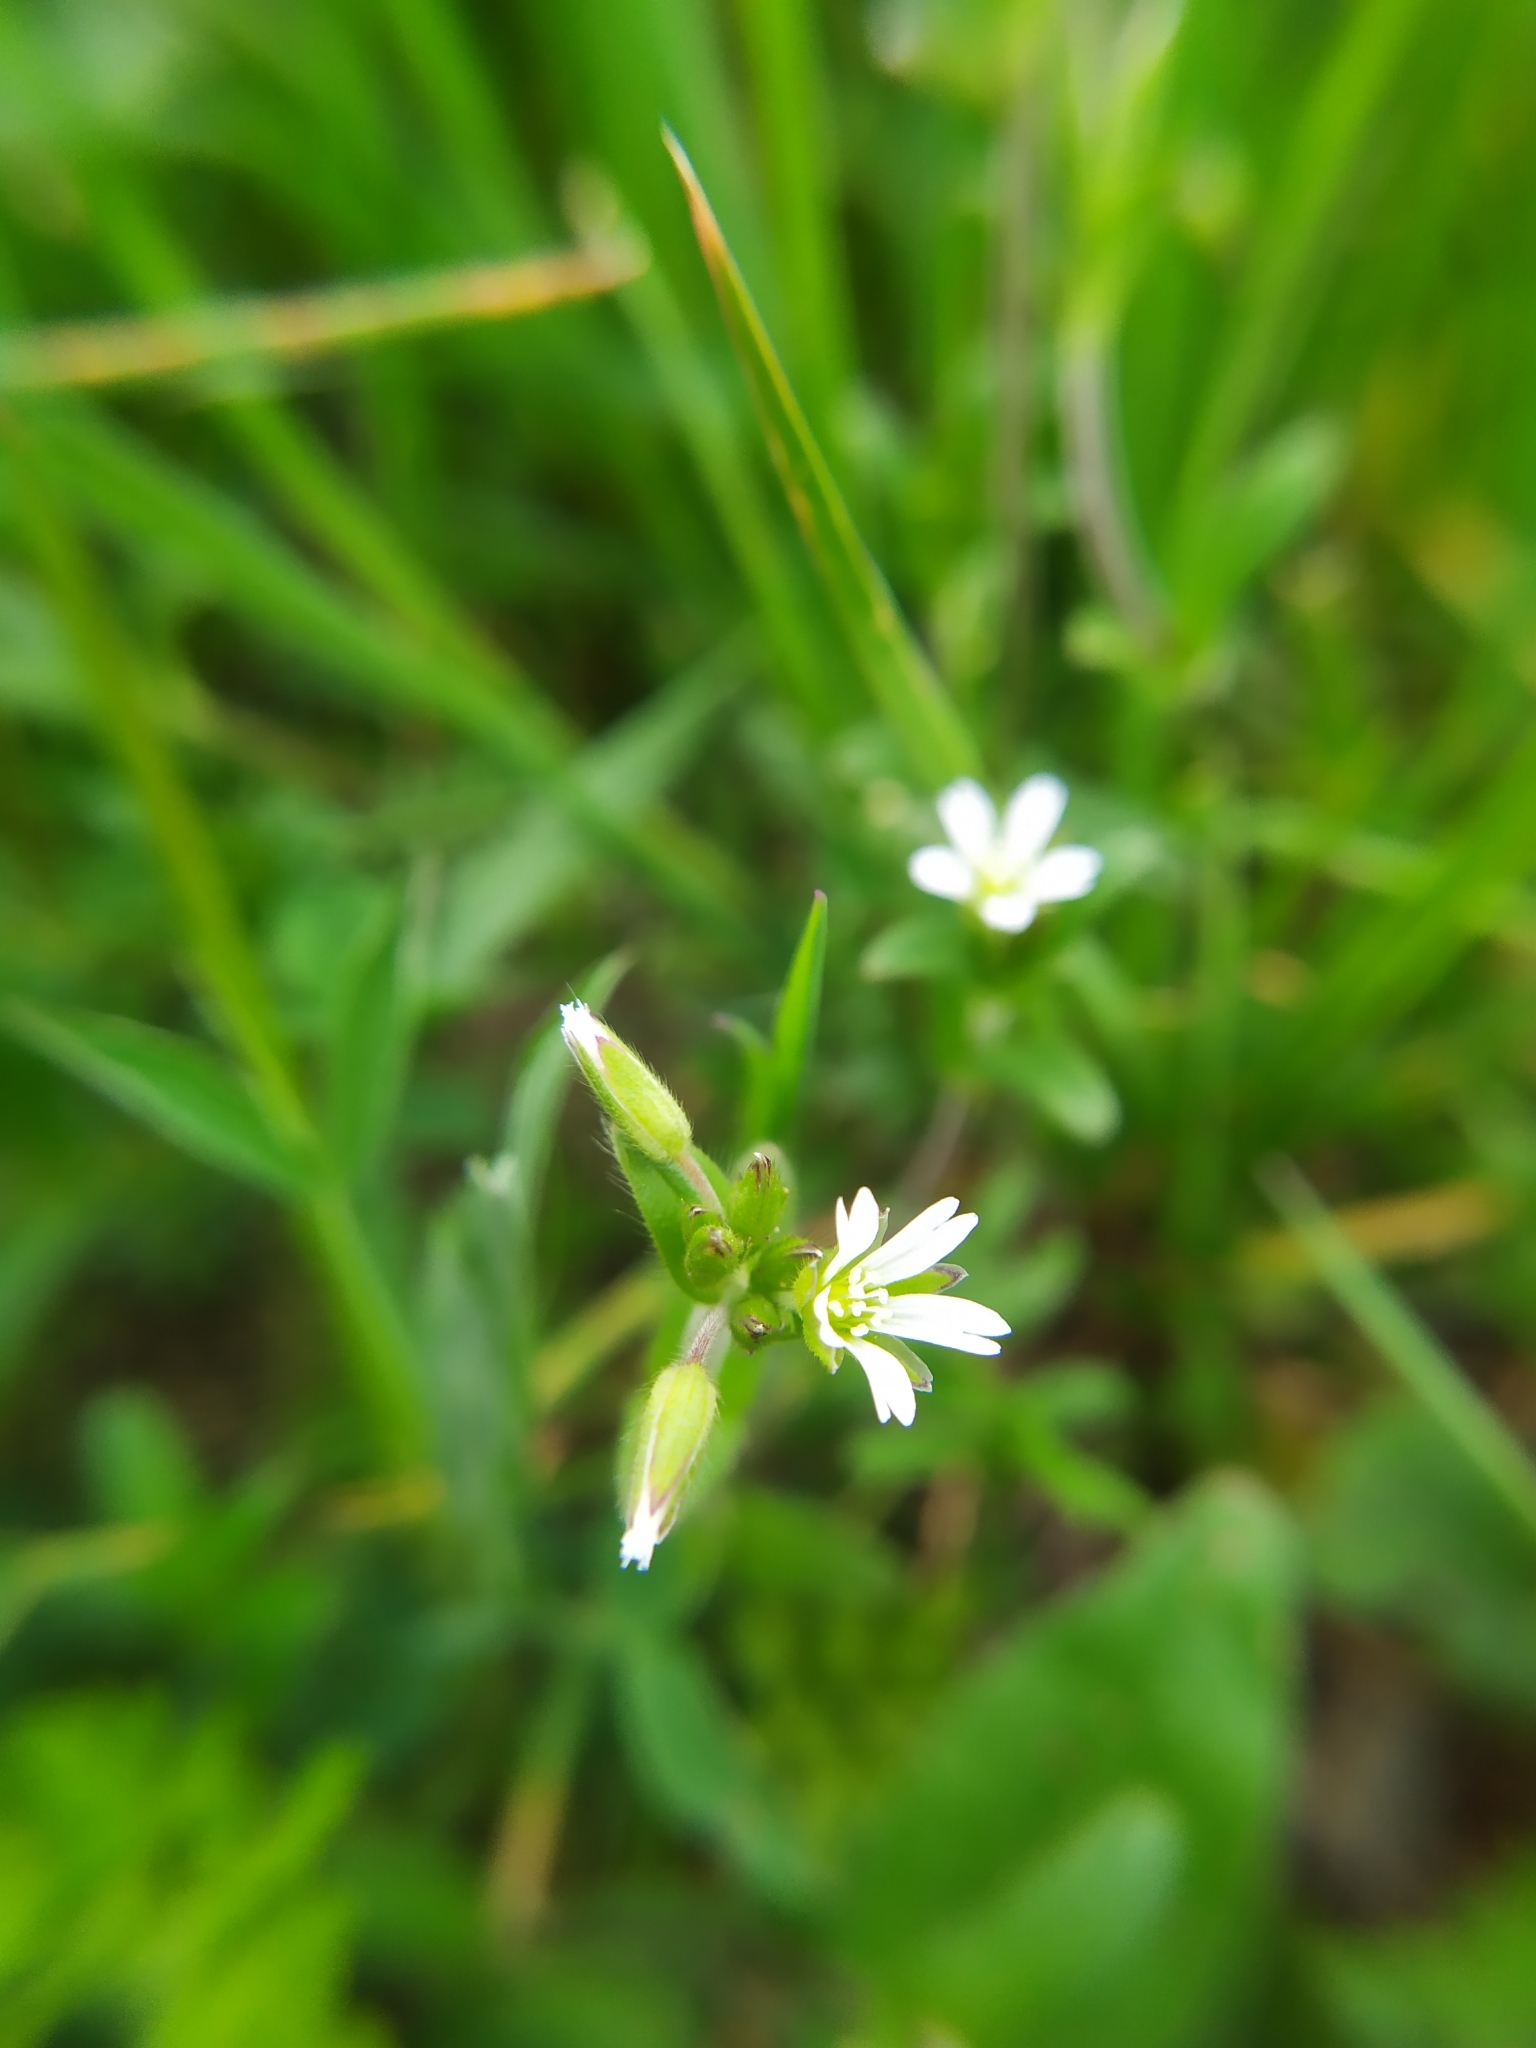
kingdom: Plantae
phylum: Tracheophyta
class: Magnoliopsida
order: Caryophyllales
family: Caryophyllaceae
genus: Cerastium
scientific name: Cerastium holosteoides
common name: Big chickweed
